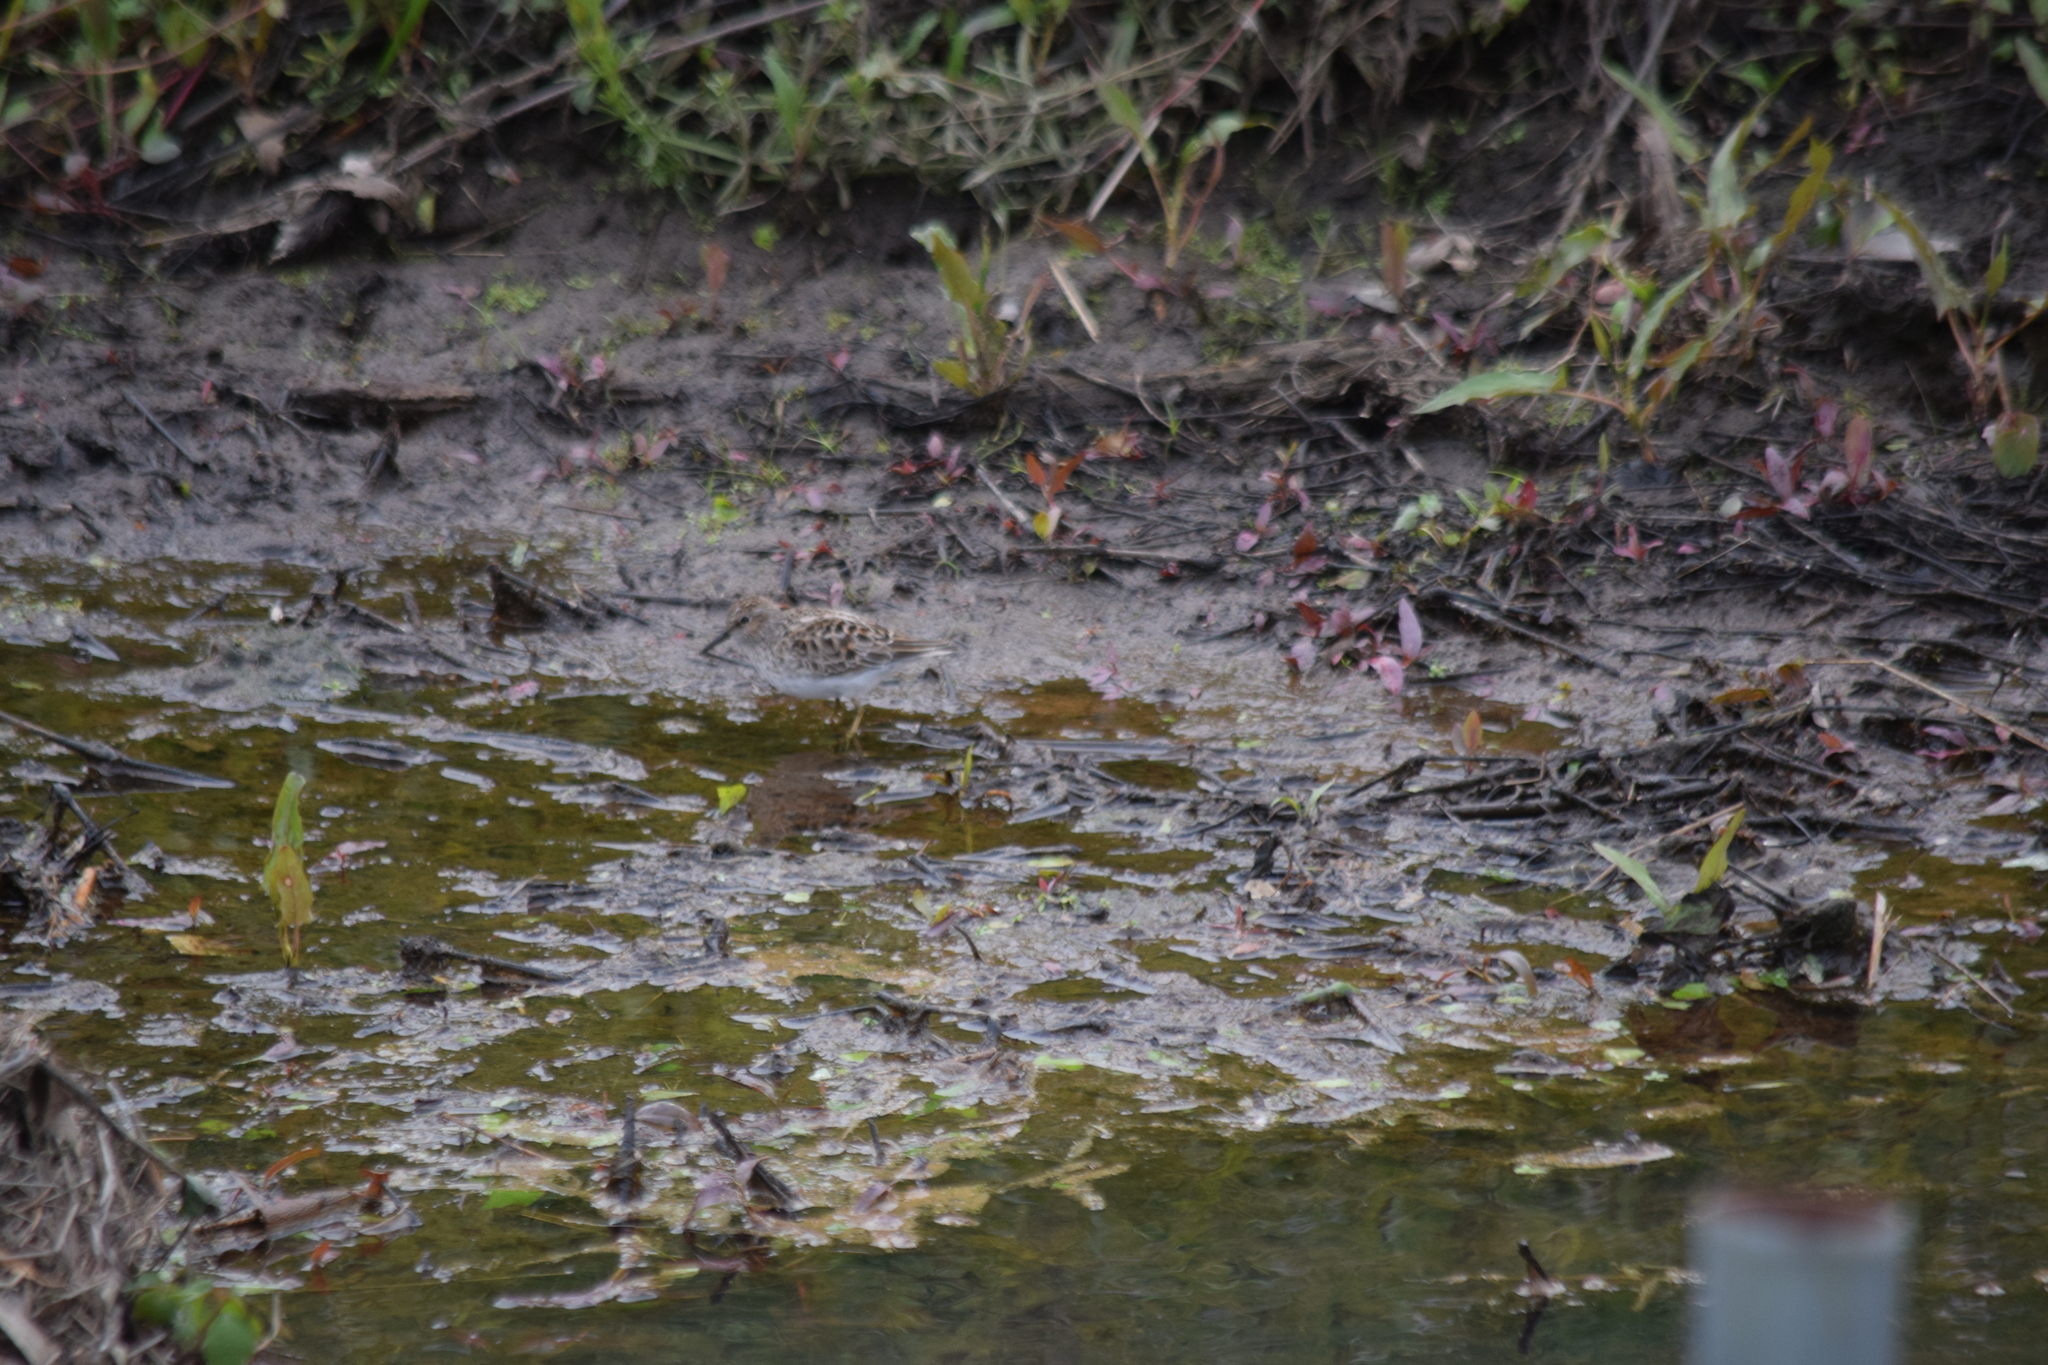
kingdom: Animalia
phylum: Chordata
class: Aves
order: Charadriiformes
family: Scolopacidae
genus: Calidris
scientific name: Calidris minutilla
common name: Least sandpiper
